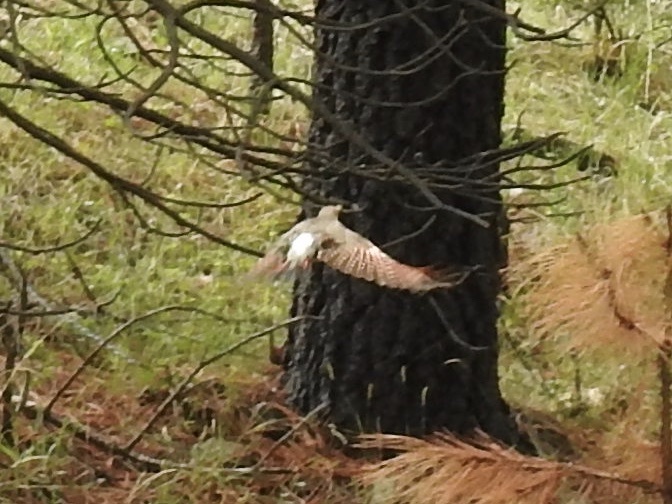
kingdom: Animalia
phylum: Chordata
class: Aves
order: Piciformes
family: Picidae
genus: Colaptes
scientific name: Colaptes auratus
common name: Northern flicker
